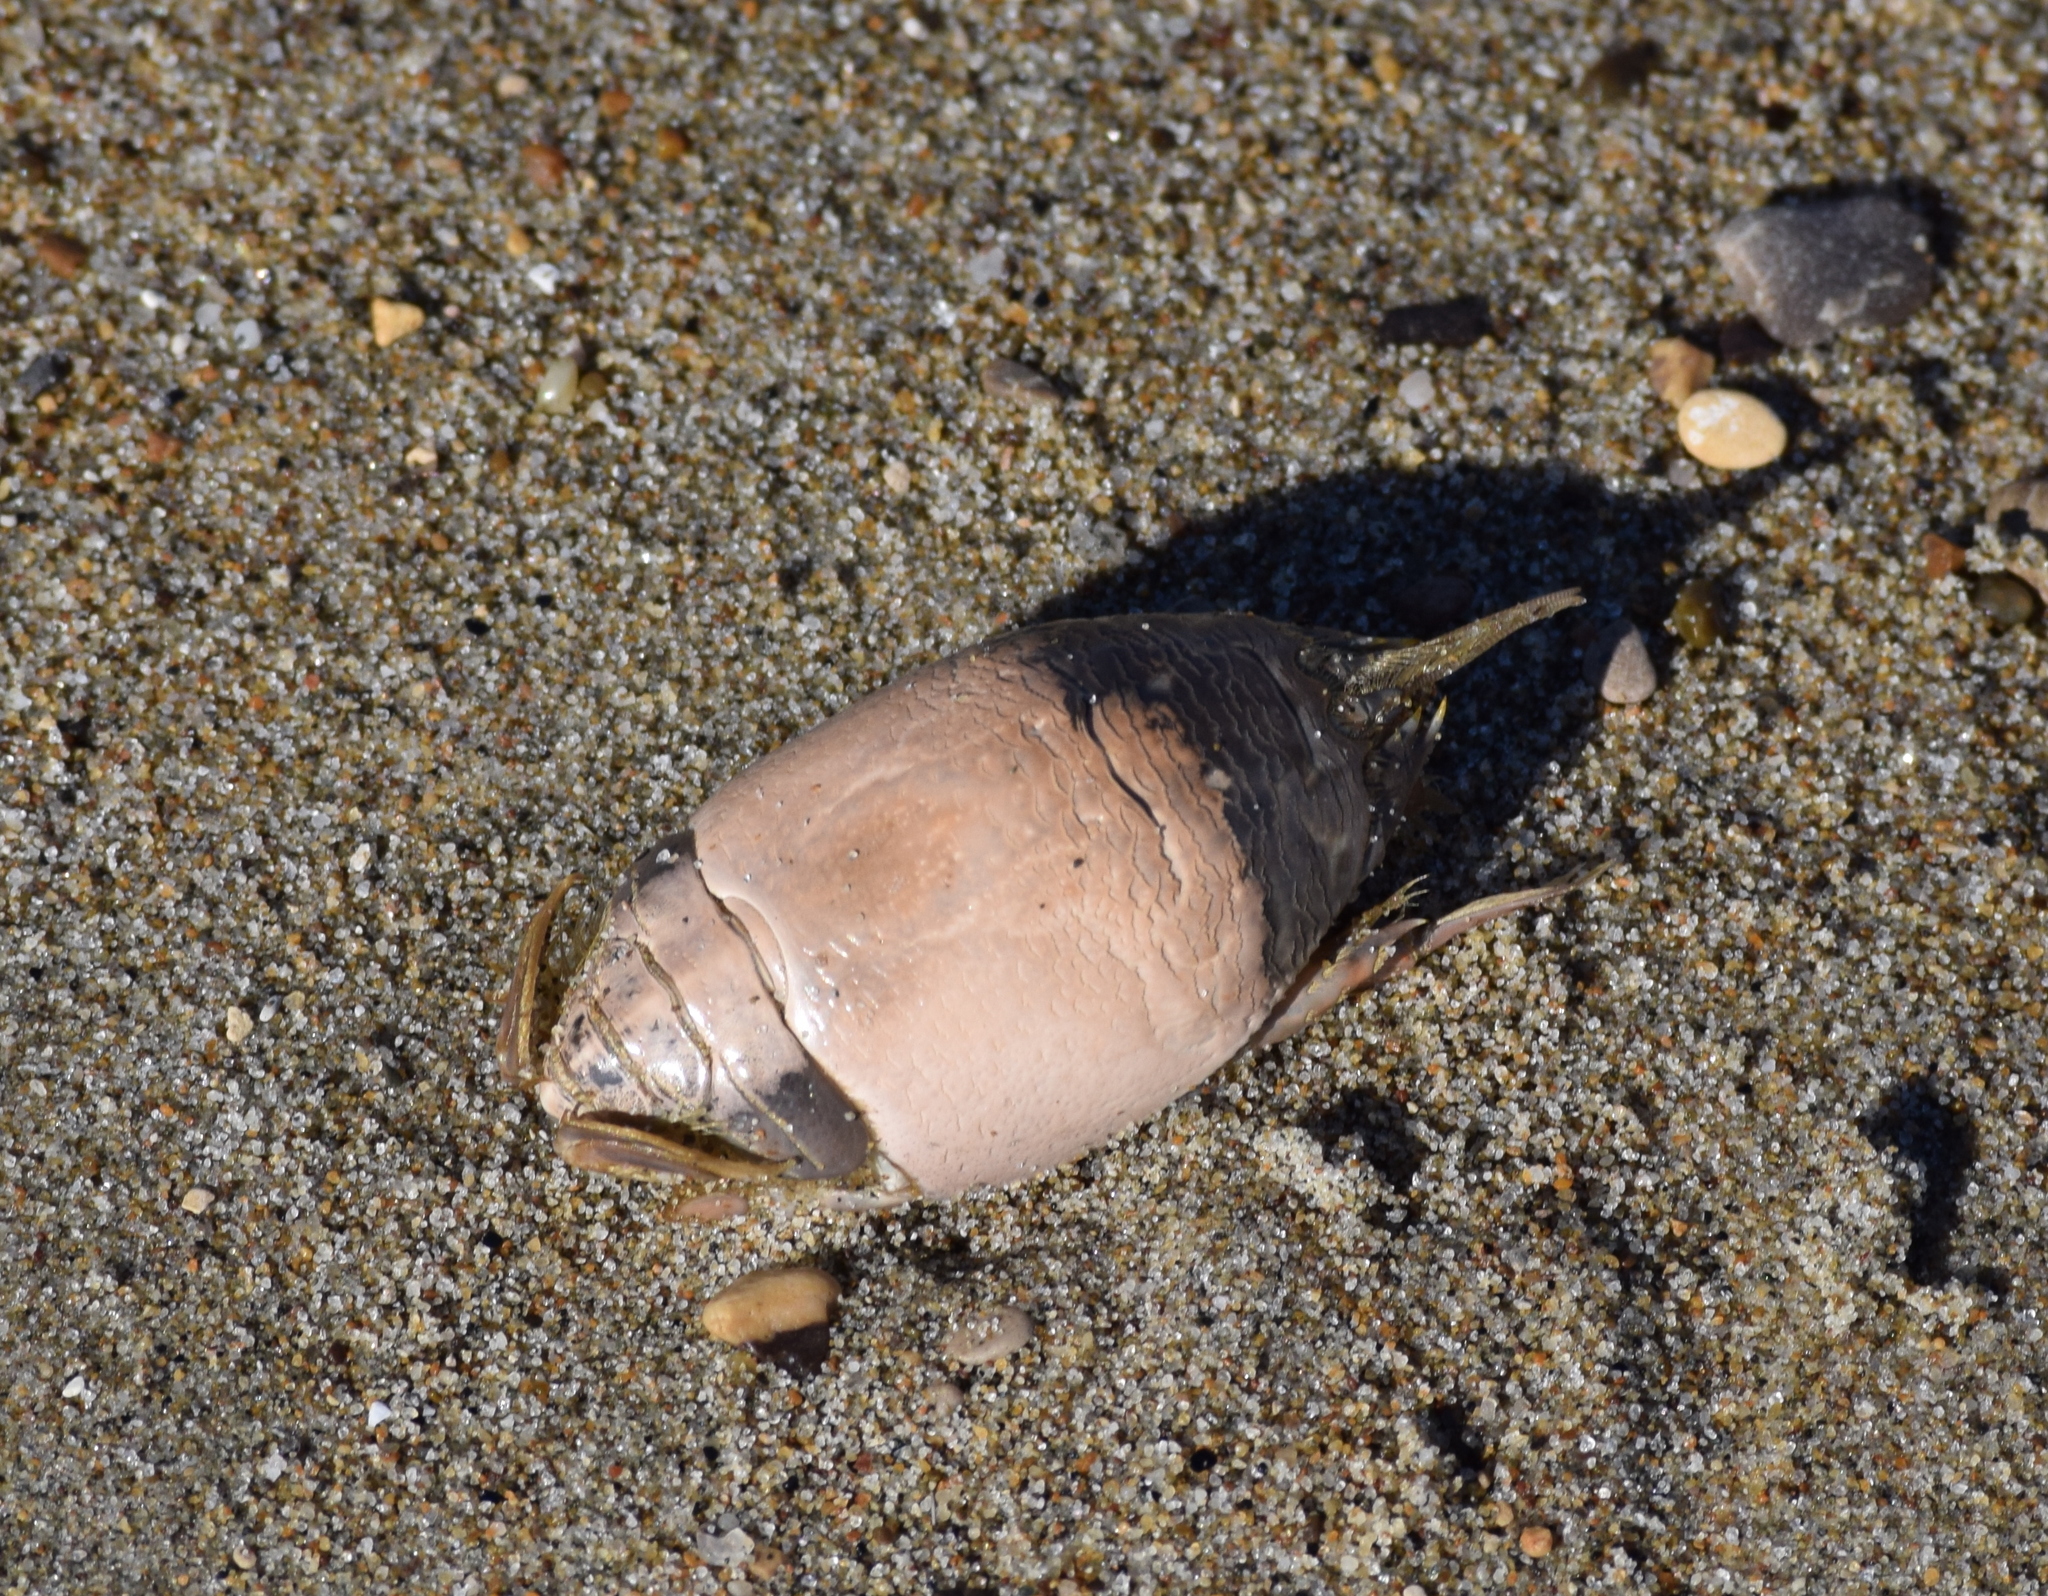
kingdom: Animalia
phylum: Arthropoda
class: Malacostraca
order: Decapoda
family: Hippidae
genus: Emerita
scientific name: Emerita analoga
